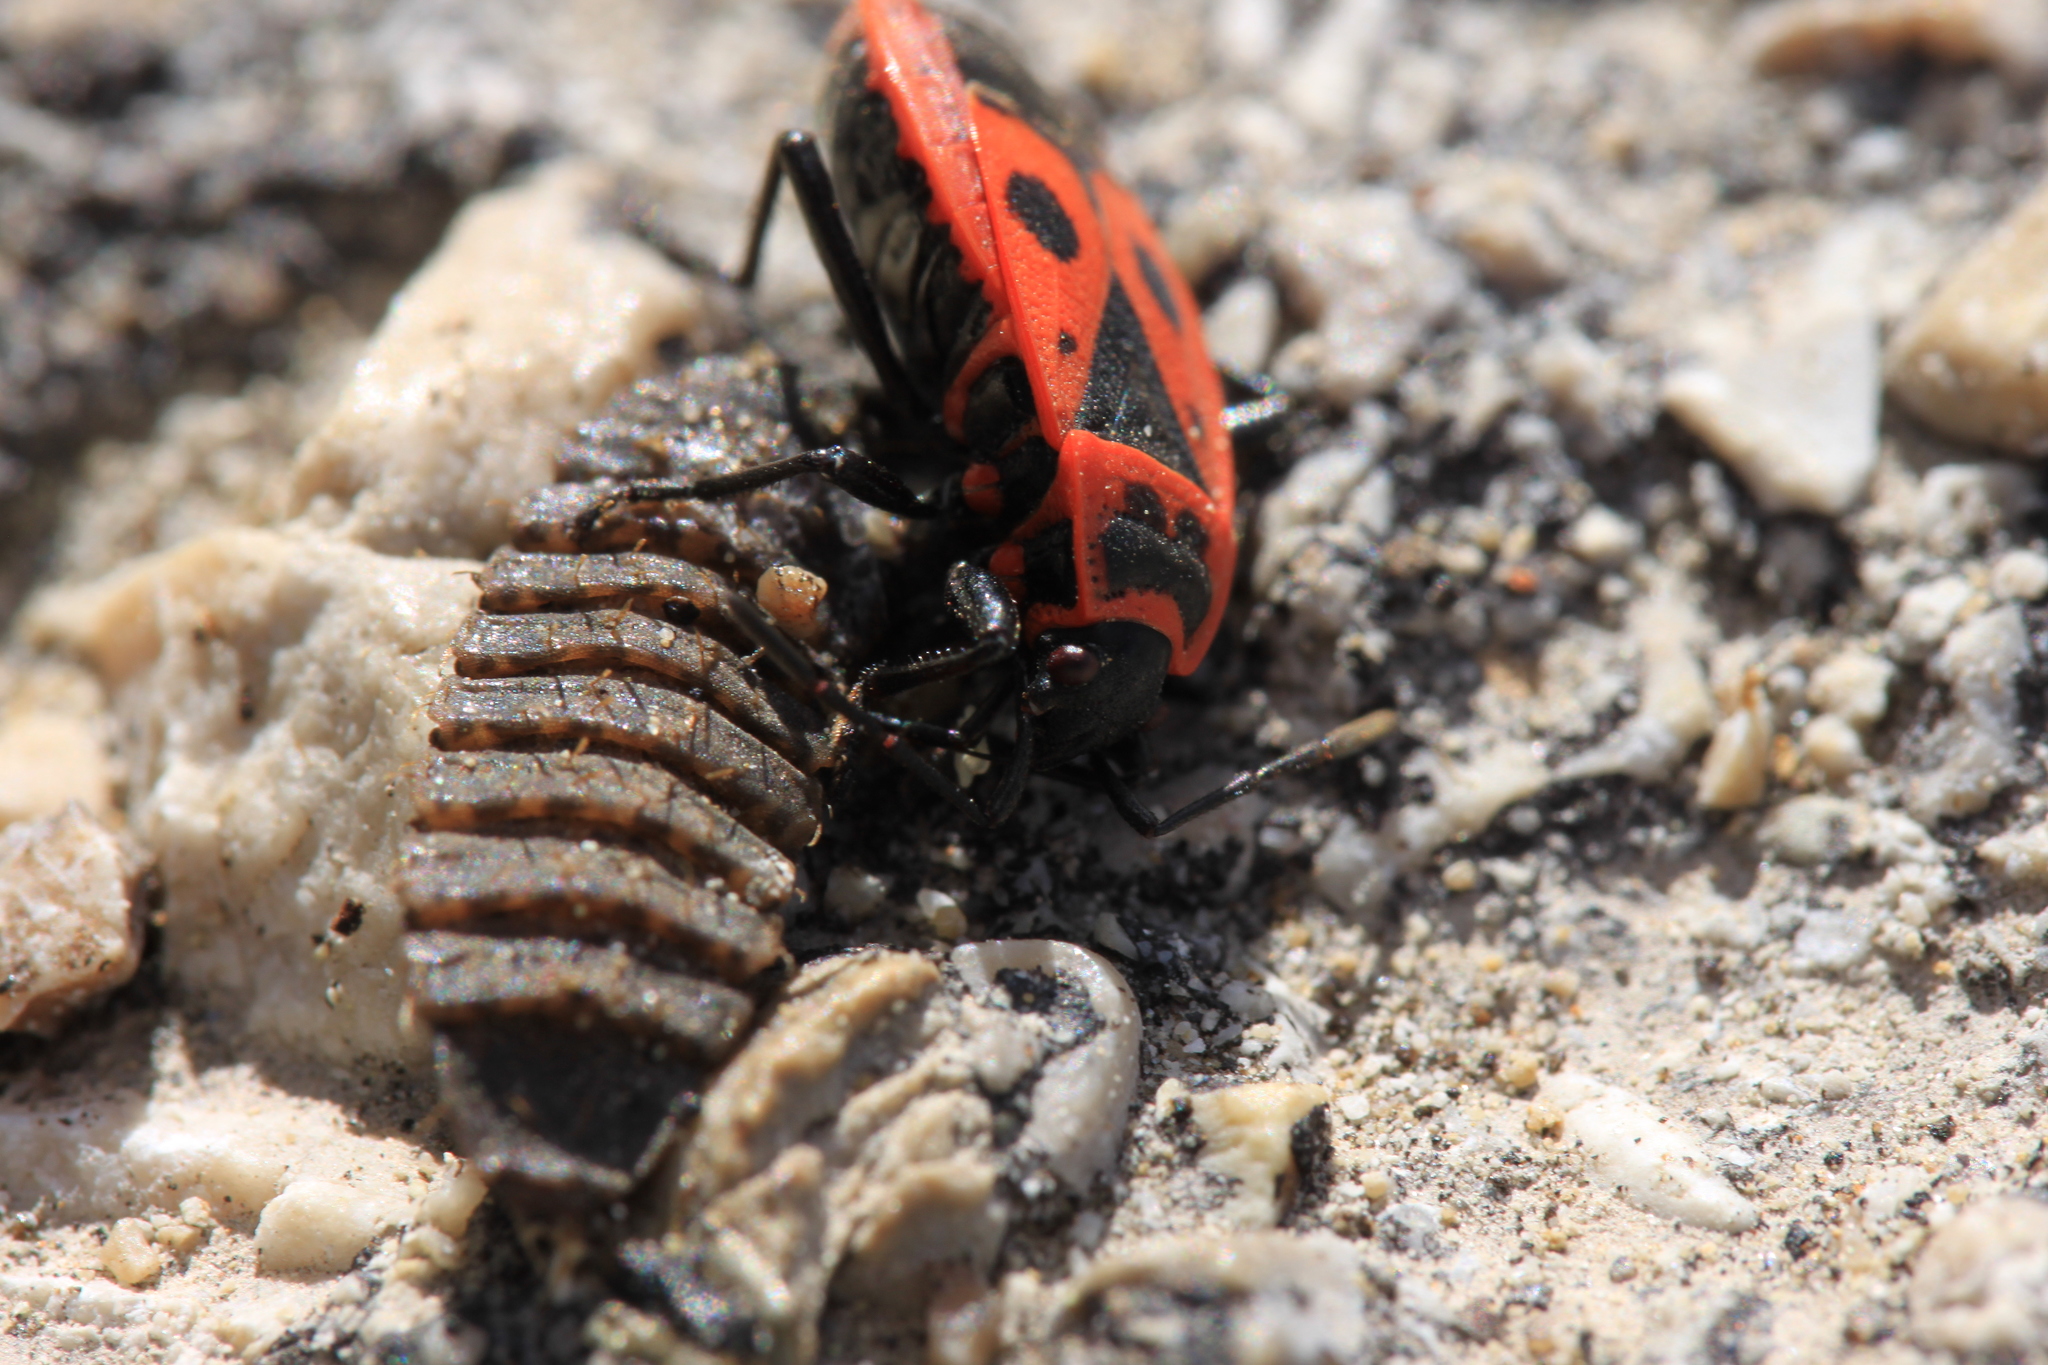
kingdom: Animalia
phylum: Arthropoda
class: Insecta
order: Hemiptera
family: Pyrrhocoridae
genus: Pyrrhocoris
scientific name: Pyrrhocoris apterus
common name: Firebug
